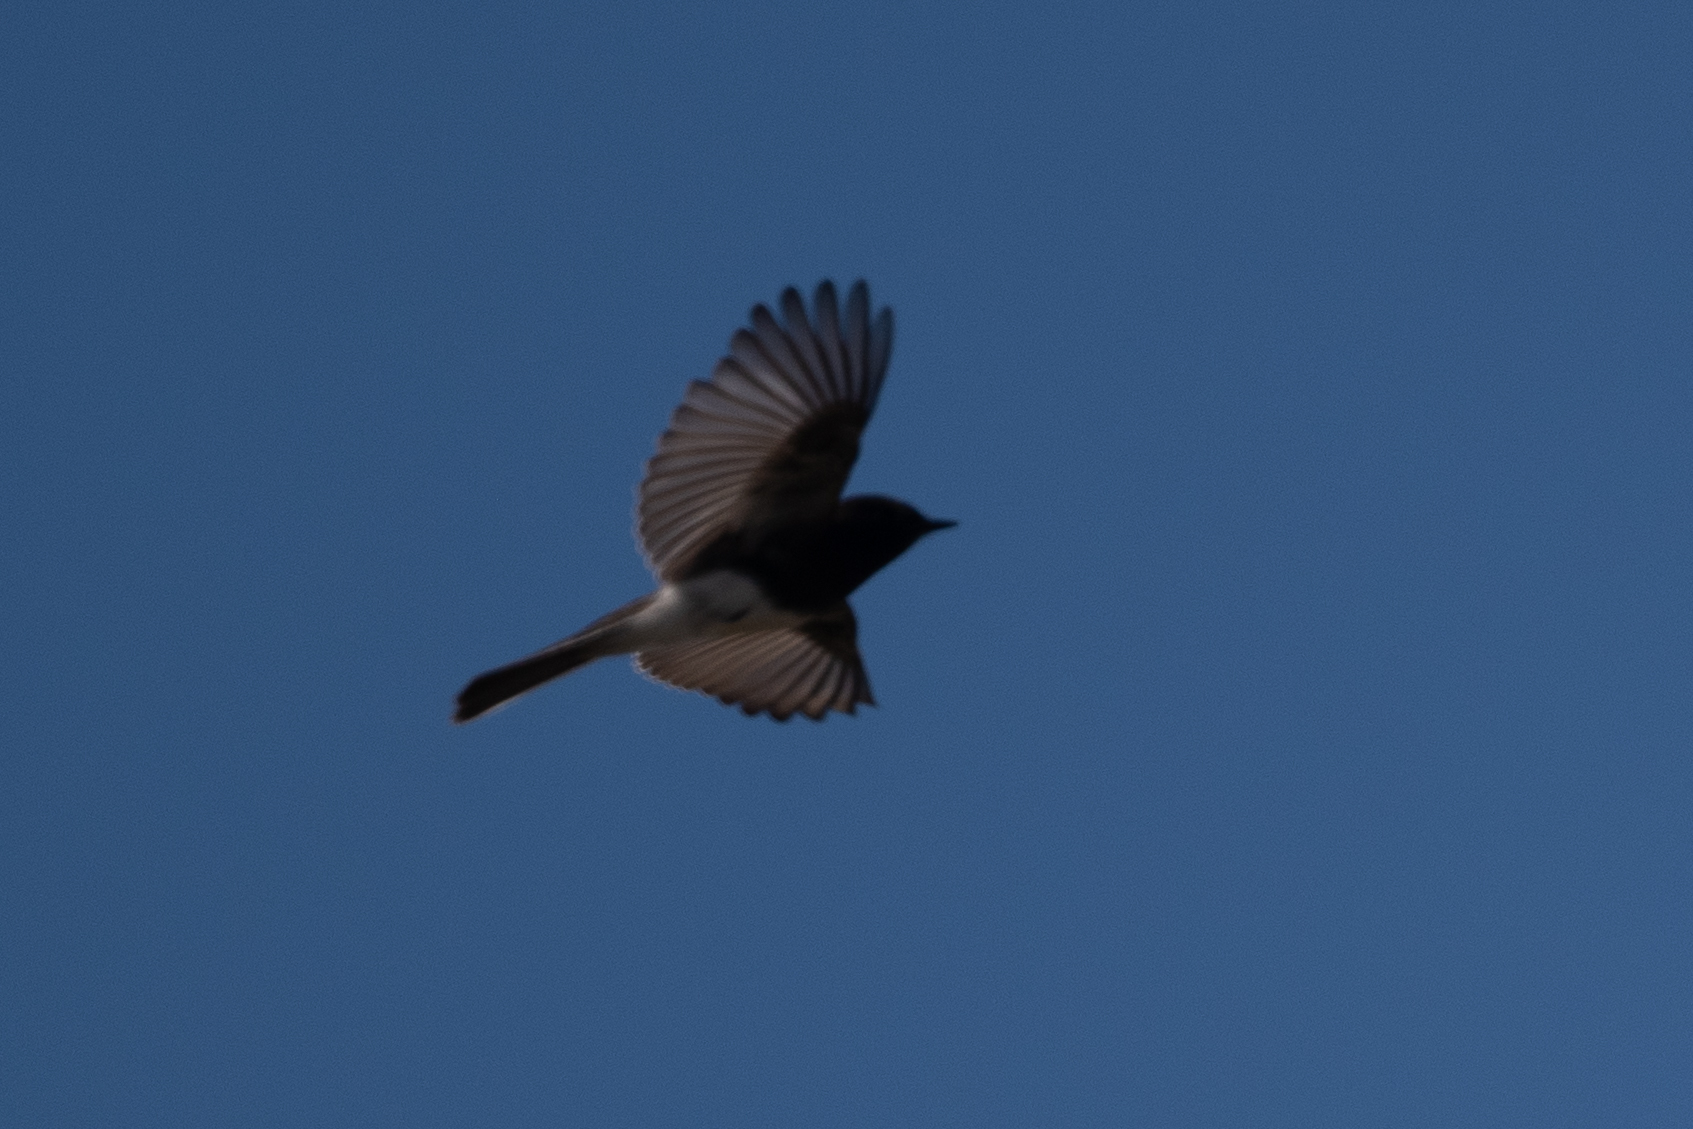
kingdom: Animalia
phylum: Chordata
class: Aves
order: Passeriformes
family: Tyrannidae
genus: Sayornis
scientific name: Sayornis nigricans
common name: Black phoebe
